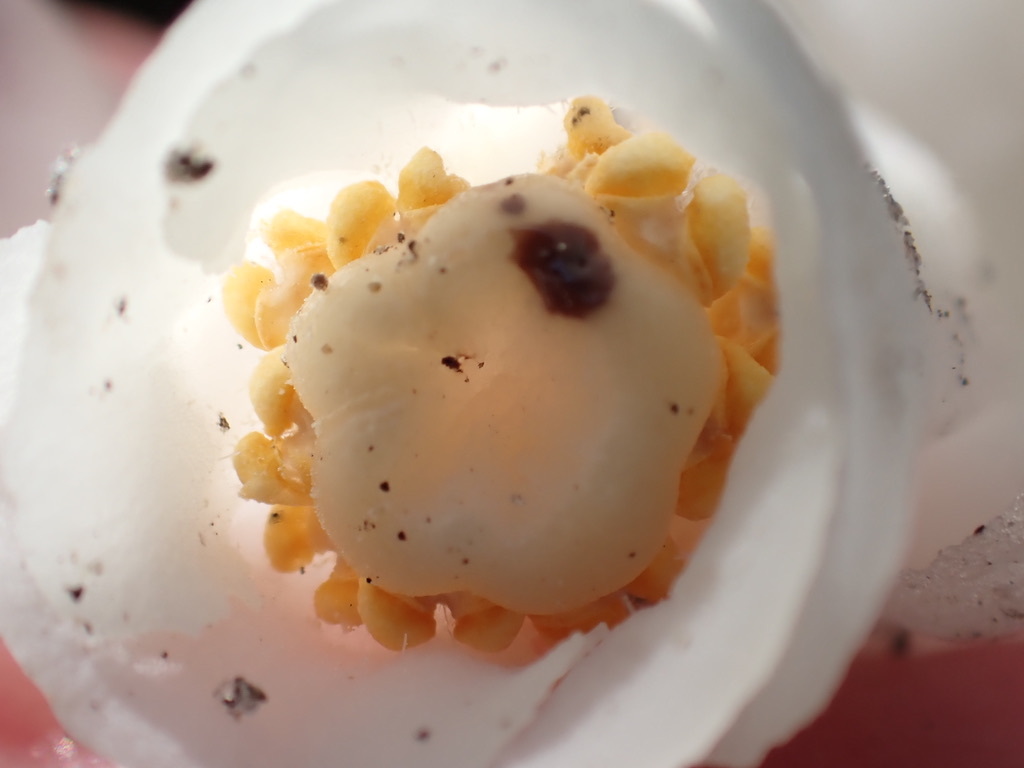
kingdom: Plantae
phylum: Tracheophyta
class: Magnoliopsida
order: Ericales
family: Ericaceae
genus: Monotropa
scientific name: Monotropa uniflora
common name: Convulsion root
